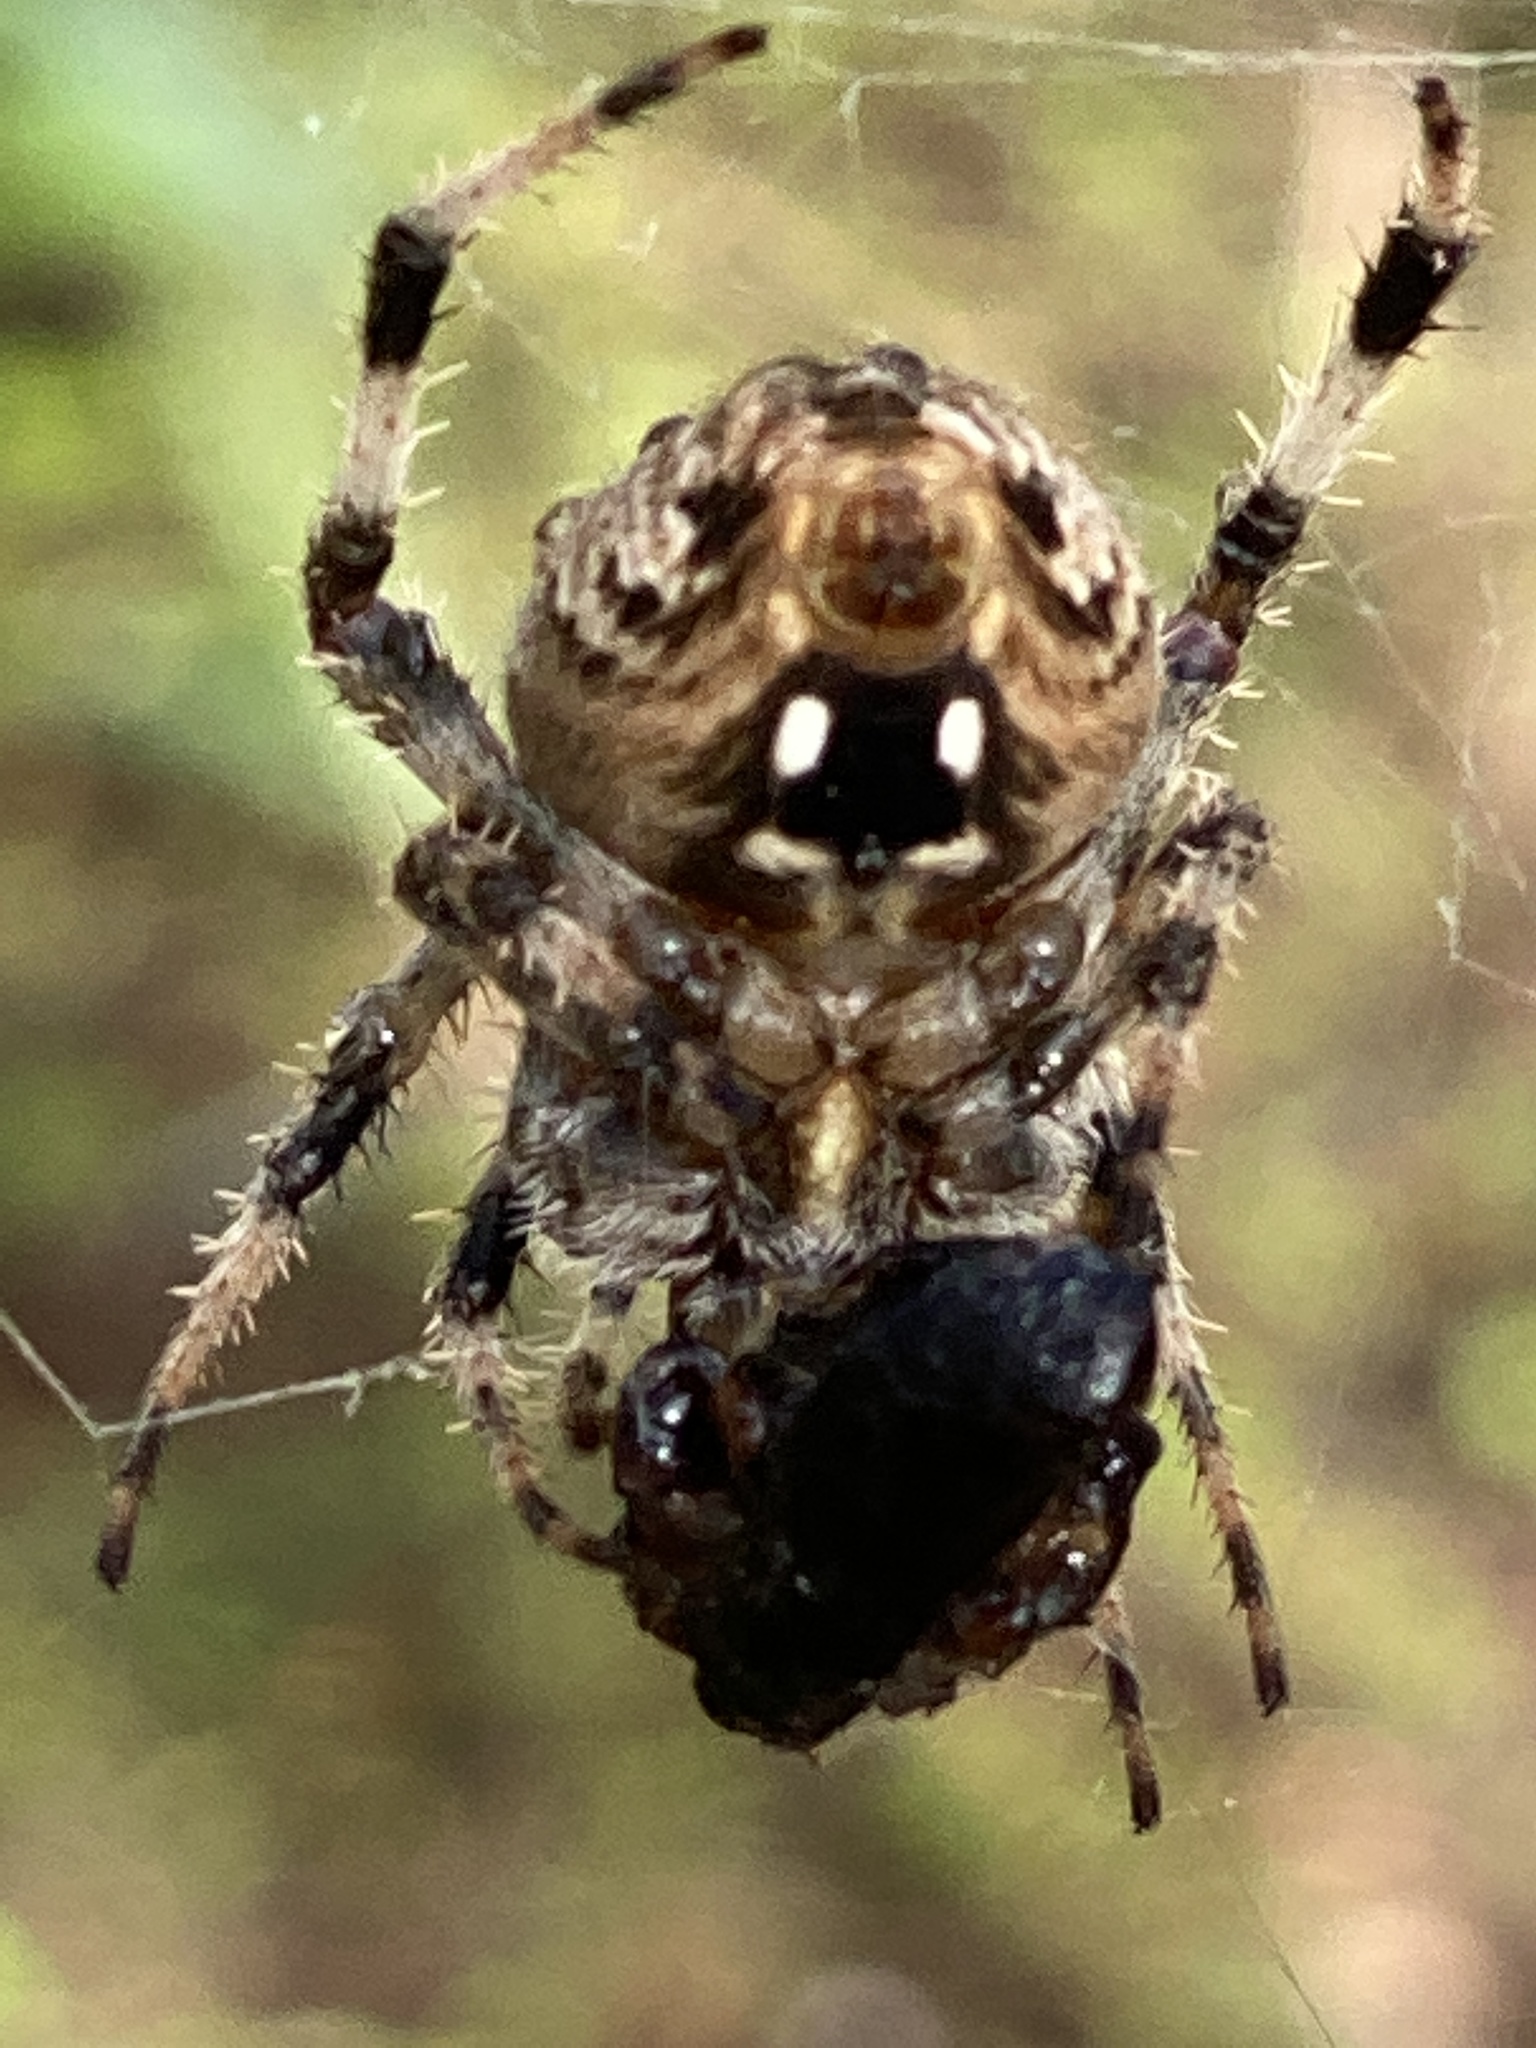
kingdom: Animalia
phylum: Arthropoda
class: Arachnida
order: Araneae
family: Araneidae
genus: Neoscona
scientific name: Neoscona crucifera
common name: Spotted orbweaver
